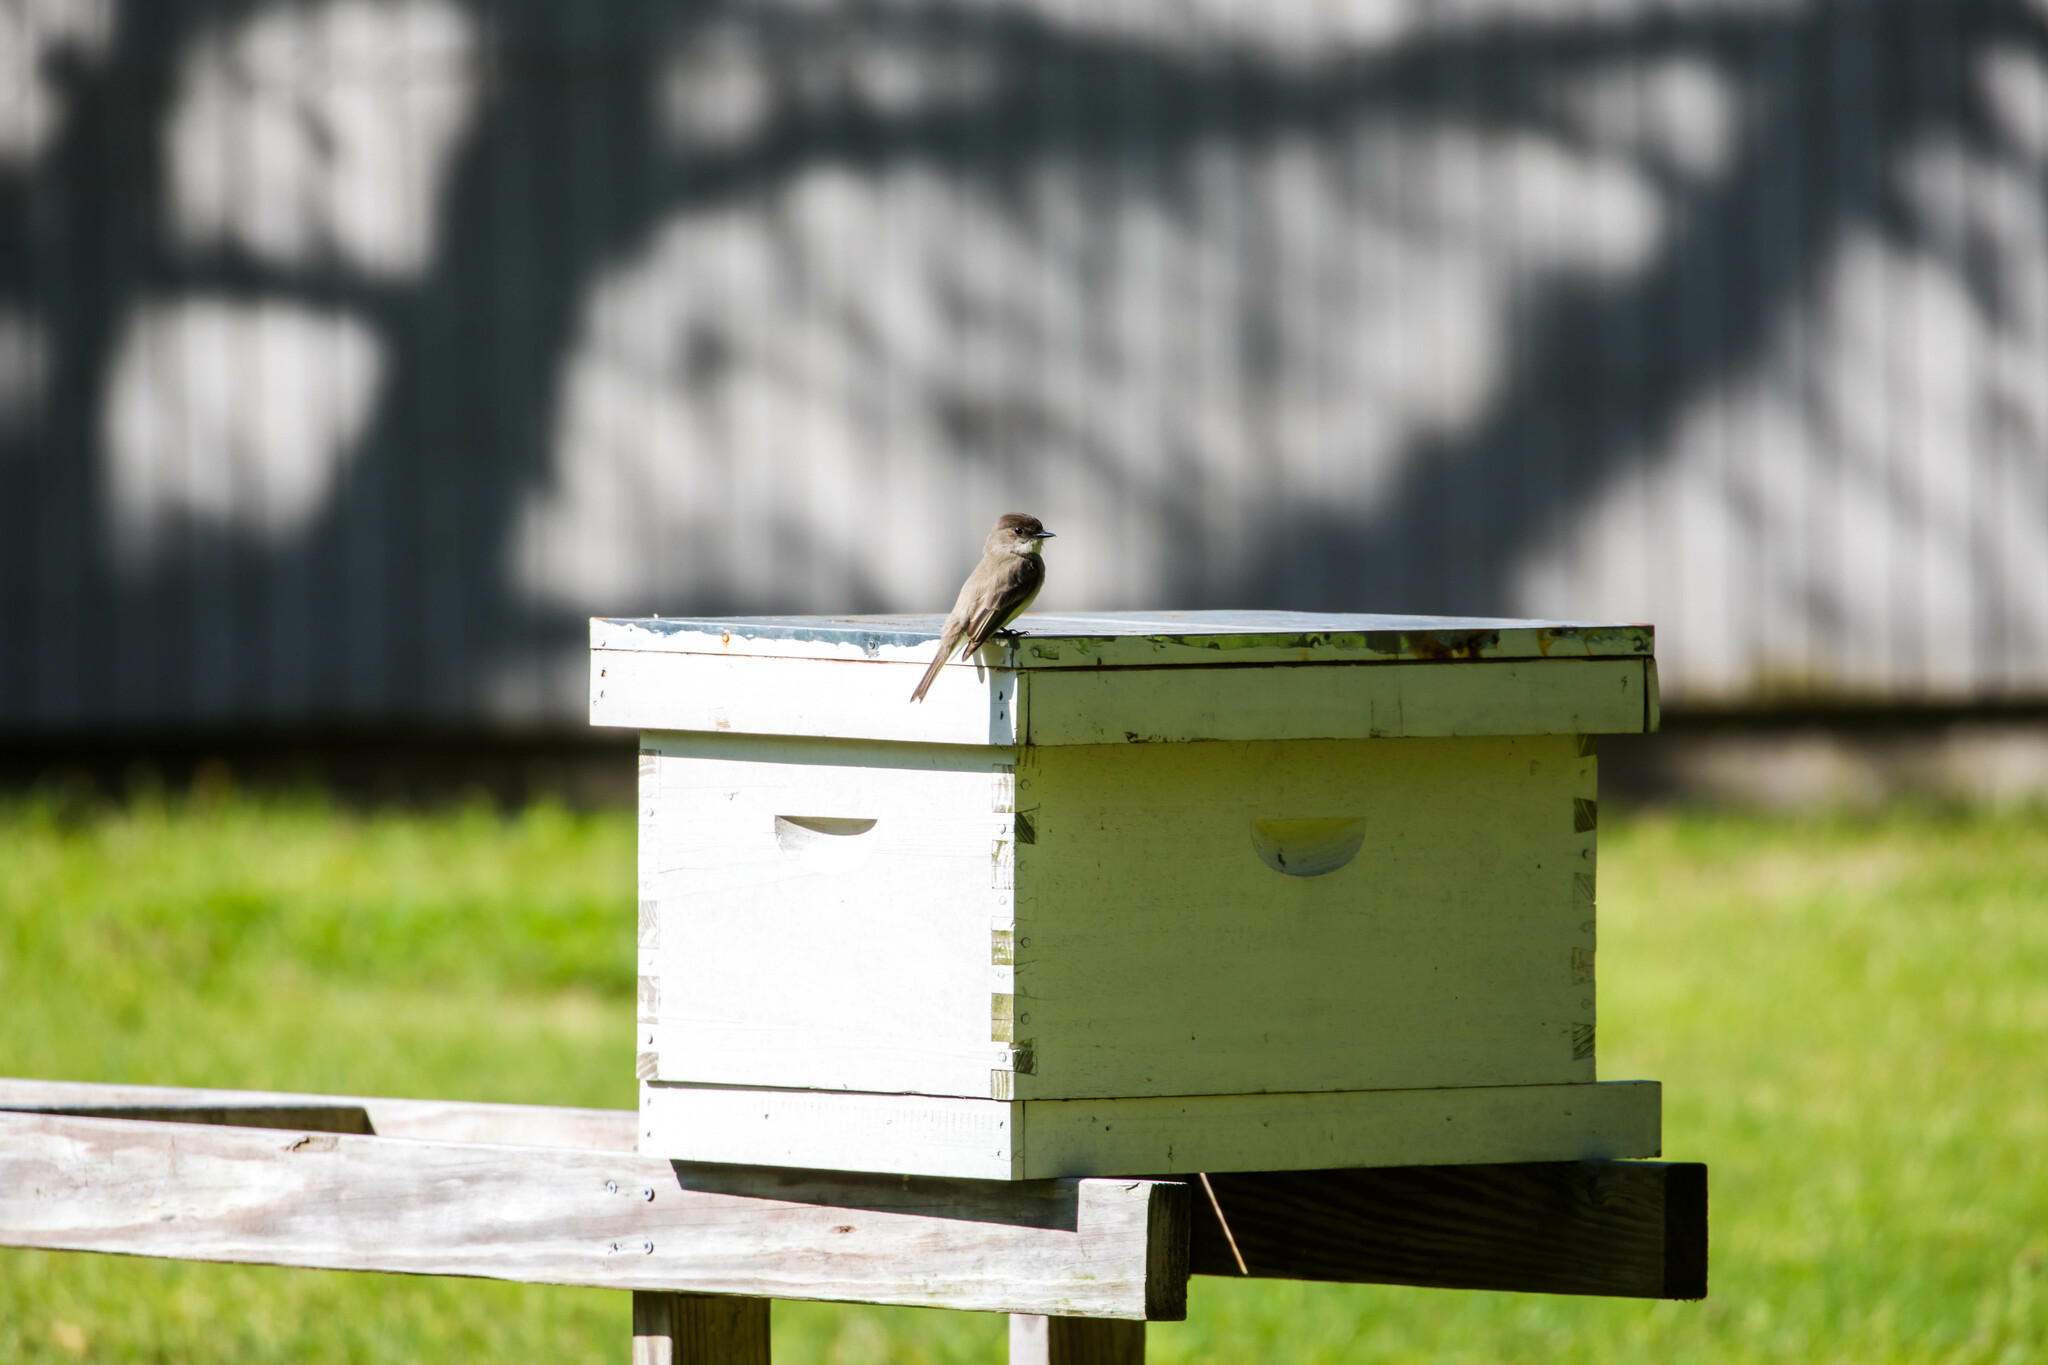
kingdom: Animalia
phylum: Chordata
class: Aves
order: Passeriformes
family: Tyrannidae
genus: Sayornis
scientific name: Sayornis phoebe
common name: Eastern phoebe
